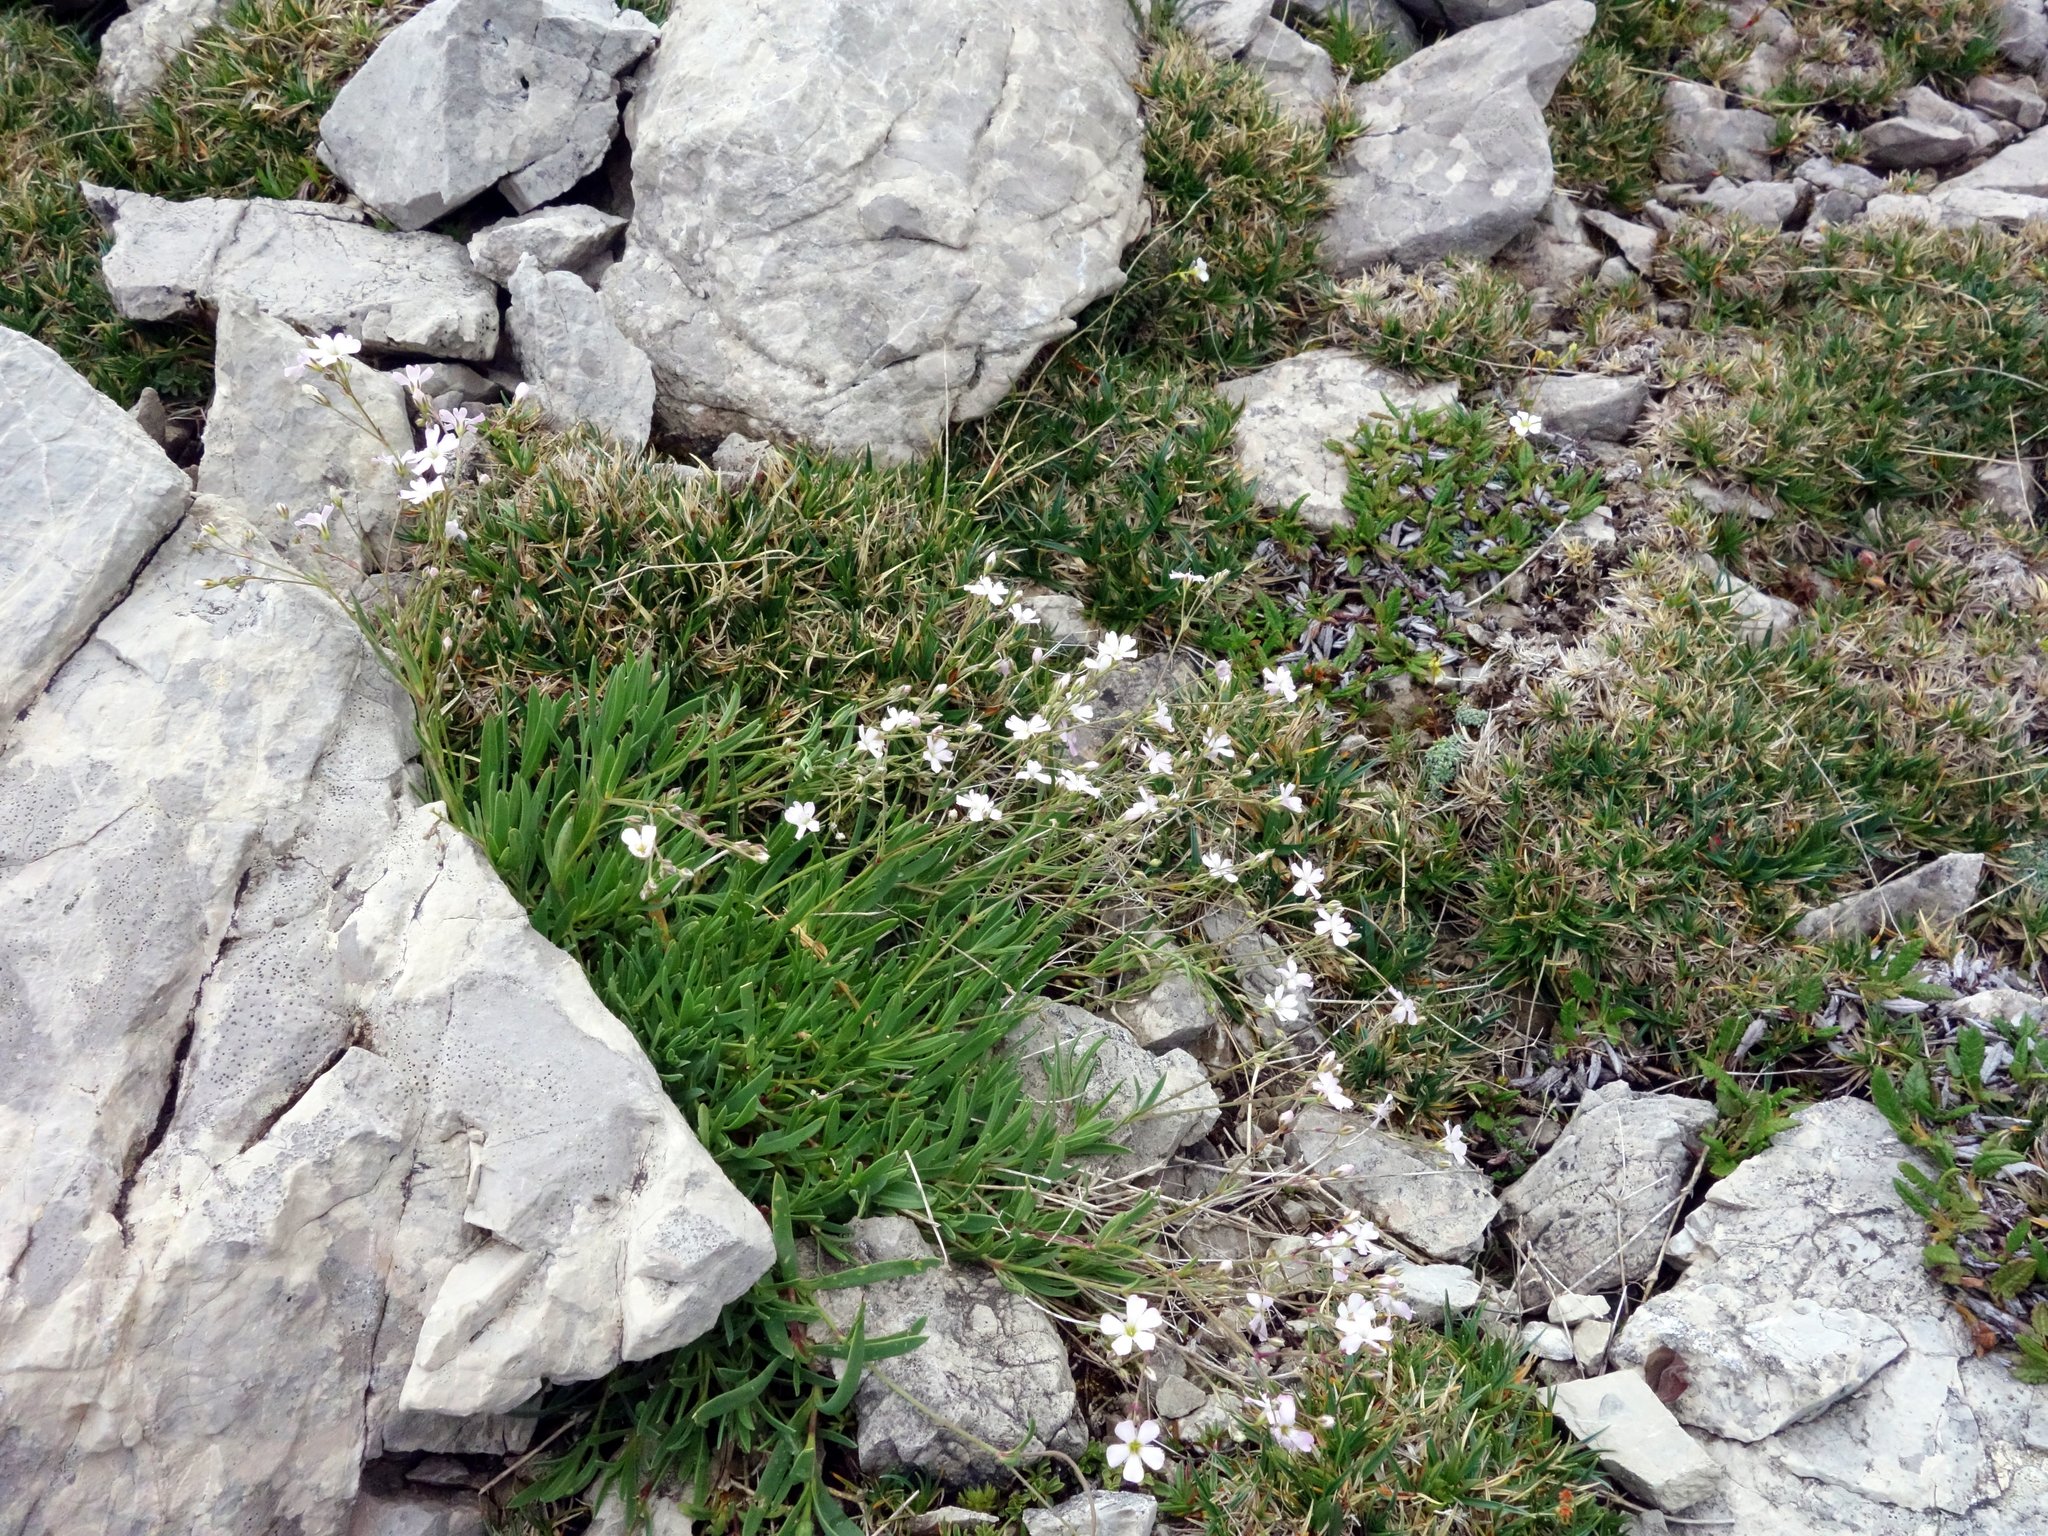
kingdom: Plantae
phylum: Tracheophyta
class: Magnoliopsida
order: Caryophyllales
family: Caryophyllaceae
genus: Gypsophila
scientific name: Gypsophila repens
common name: Creeping baby's-breath
